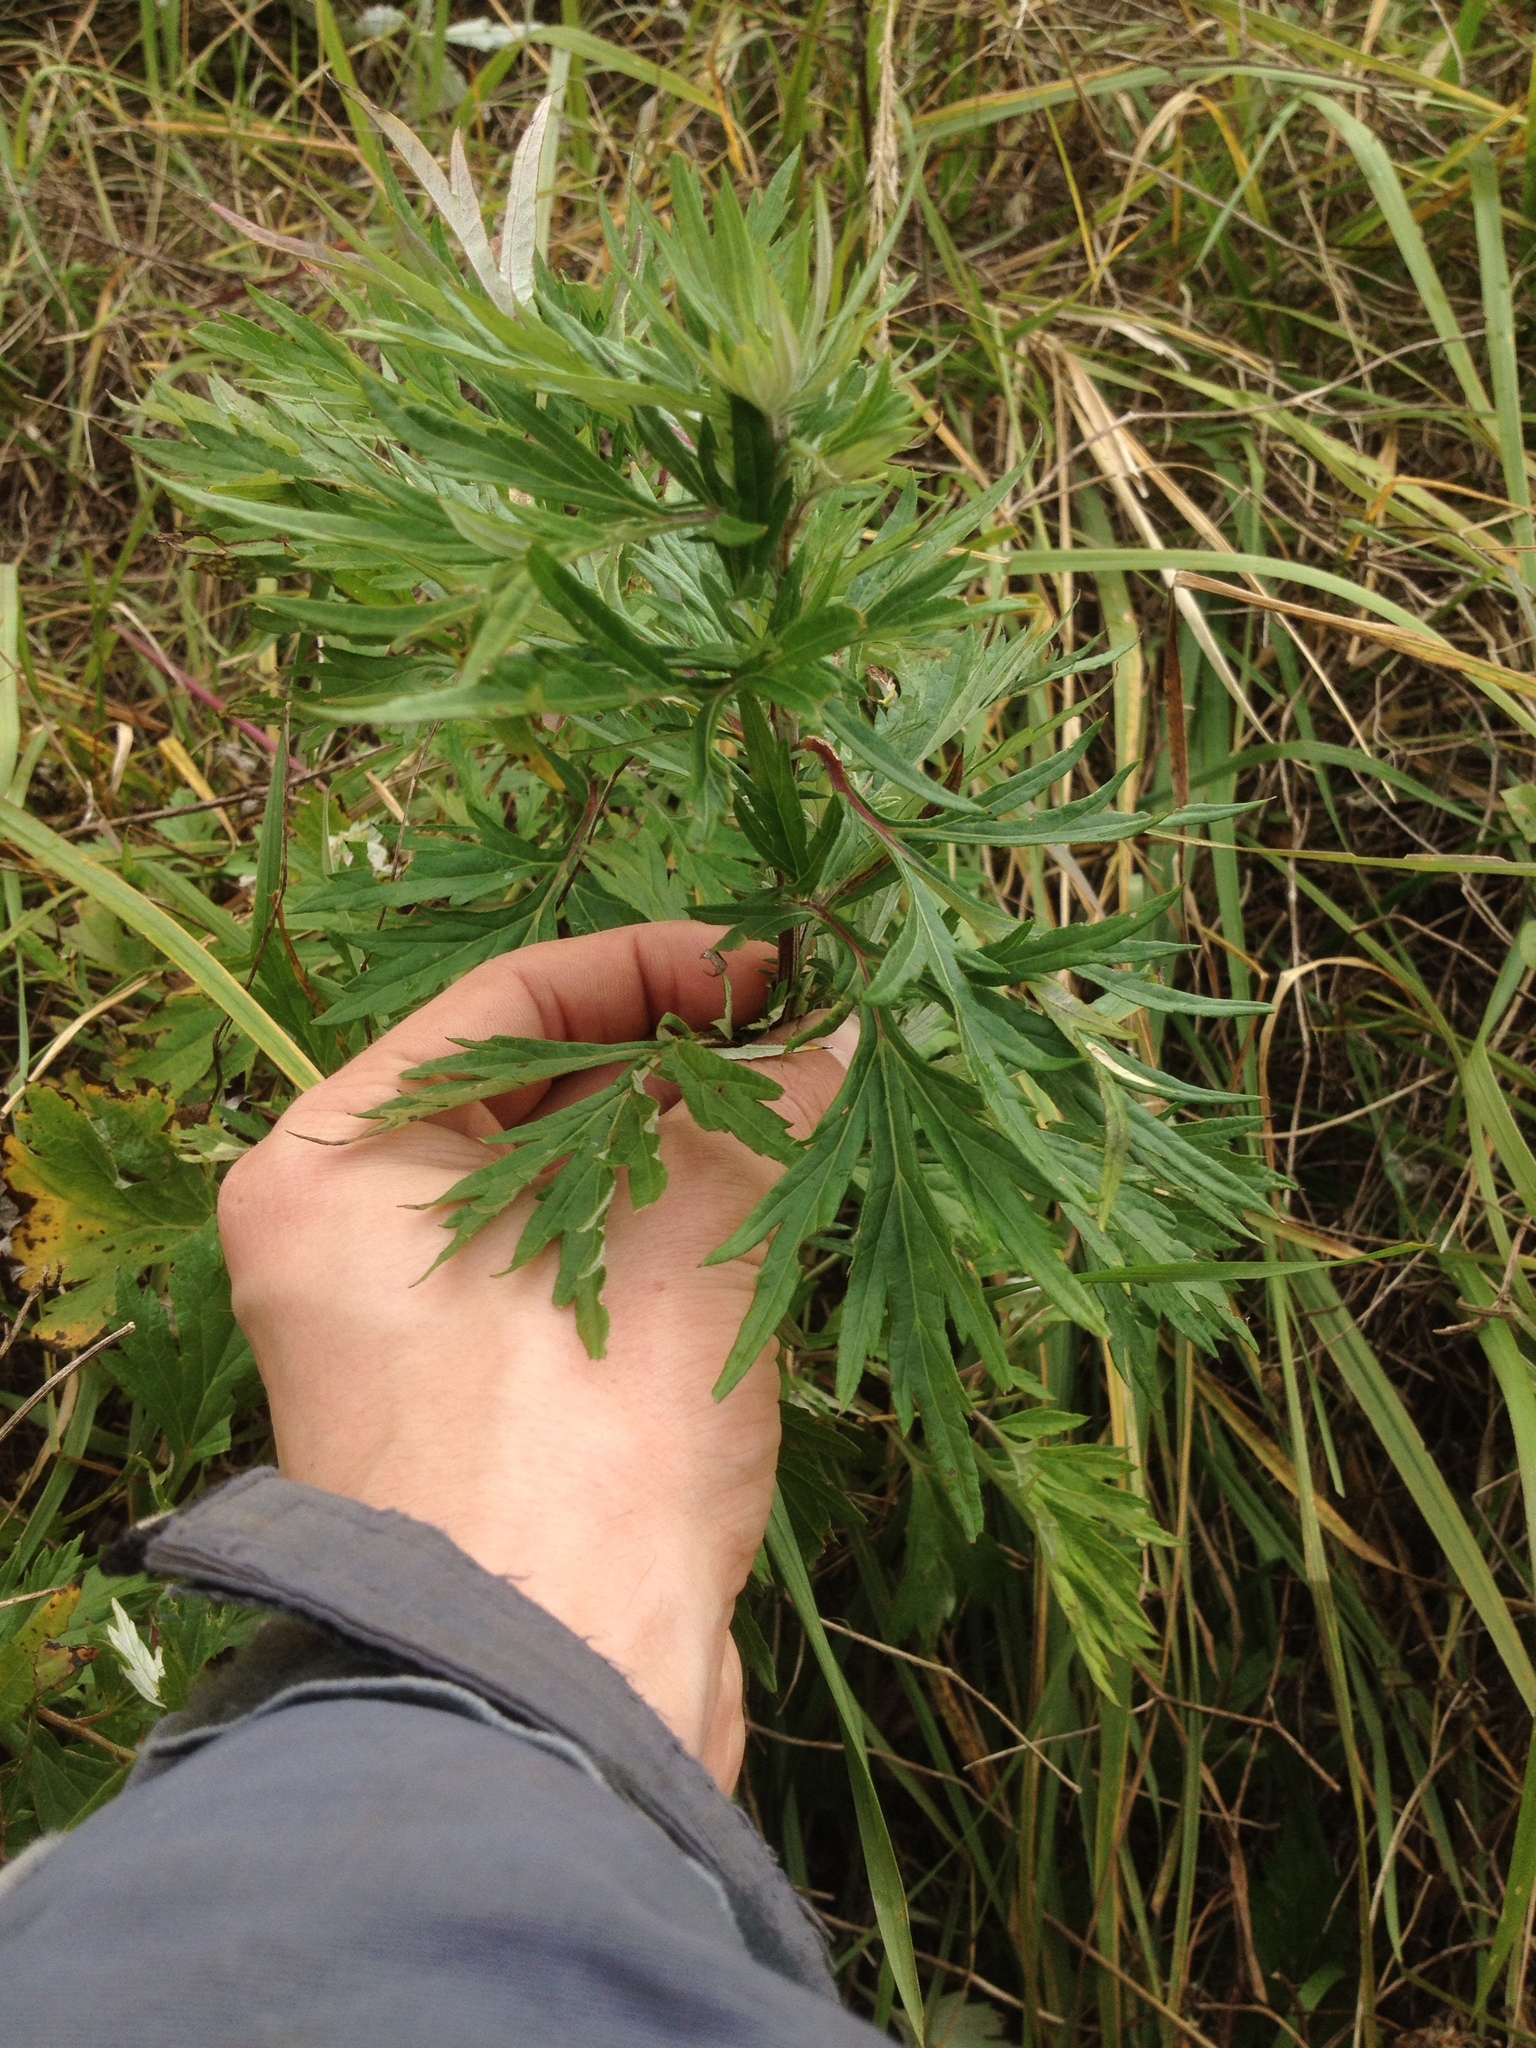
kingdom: Plantae
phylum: Tracheophyta
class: Magnoliopsida
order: Asterales
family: Asteraceae
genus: Artemisia
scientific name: Artemisia vulgaris
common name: Mugwort
